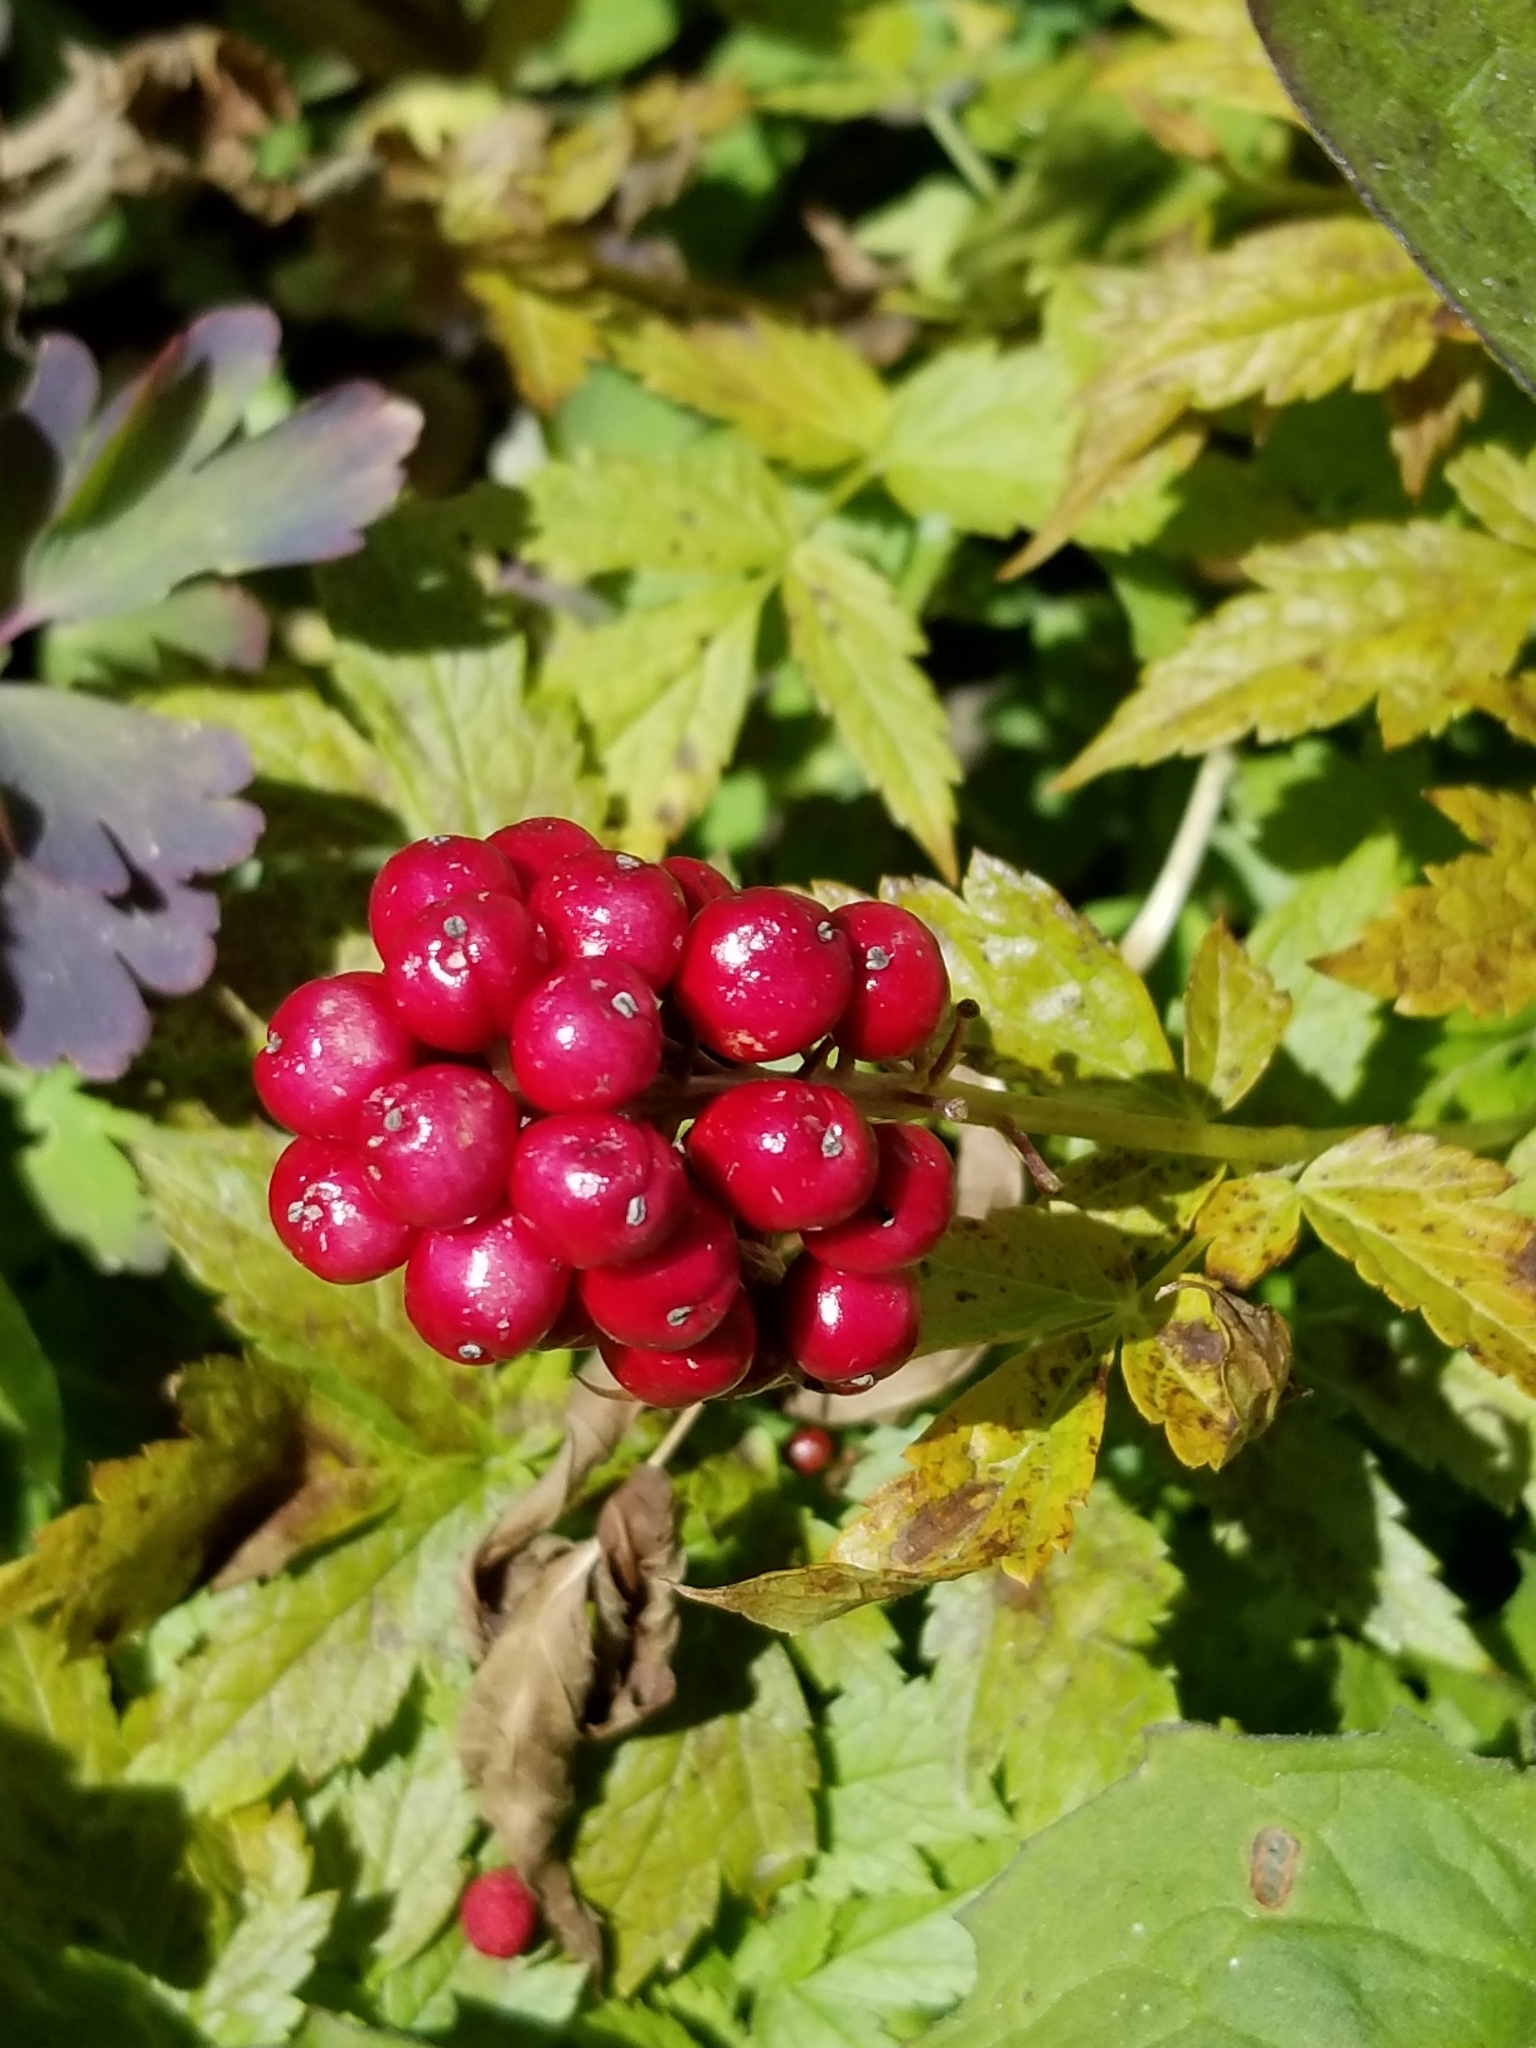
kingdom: Plantae
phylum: Tracheophyta
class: Magnoliopsida
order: Ranunculales
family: Ranunculaceae
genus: Actaea
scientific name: Actaea rubra
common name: Red baneberry
